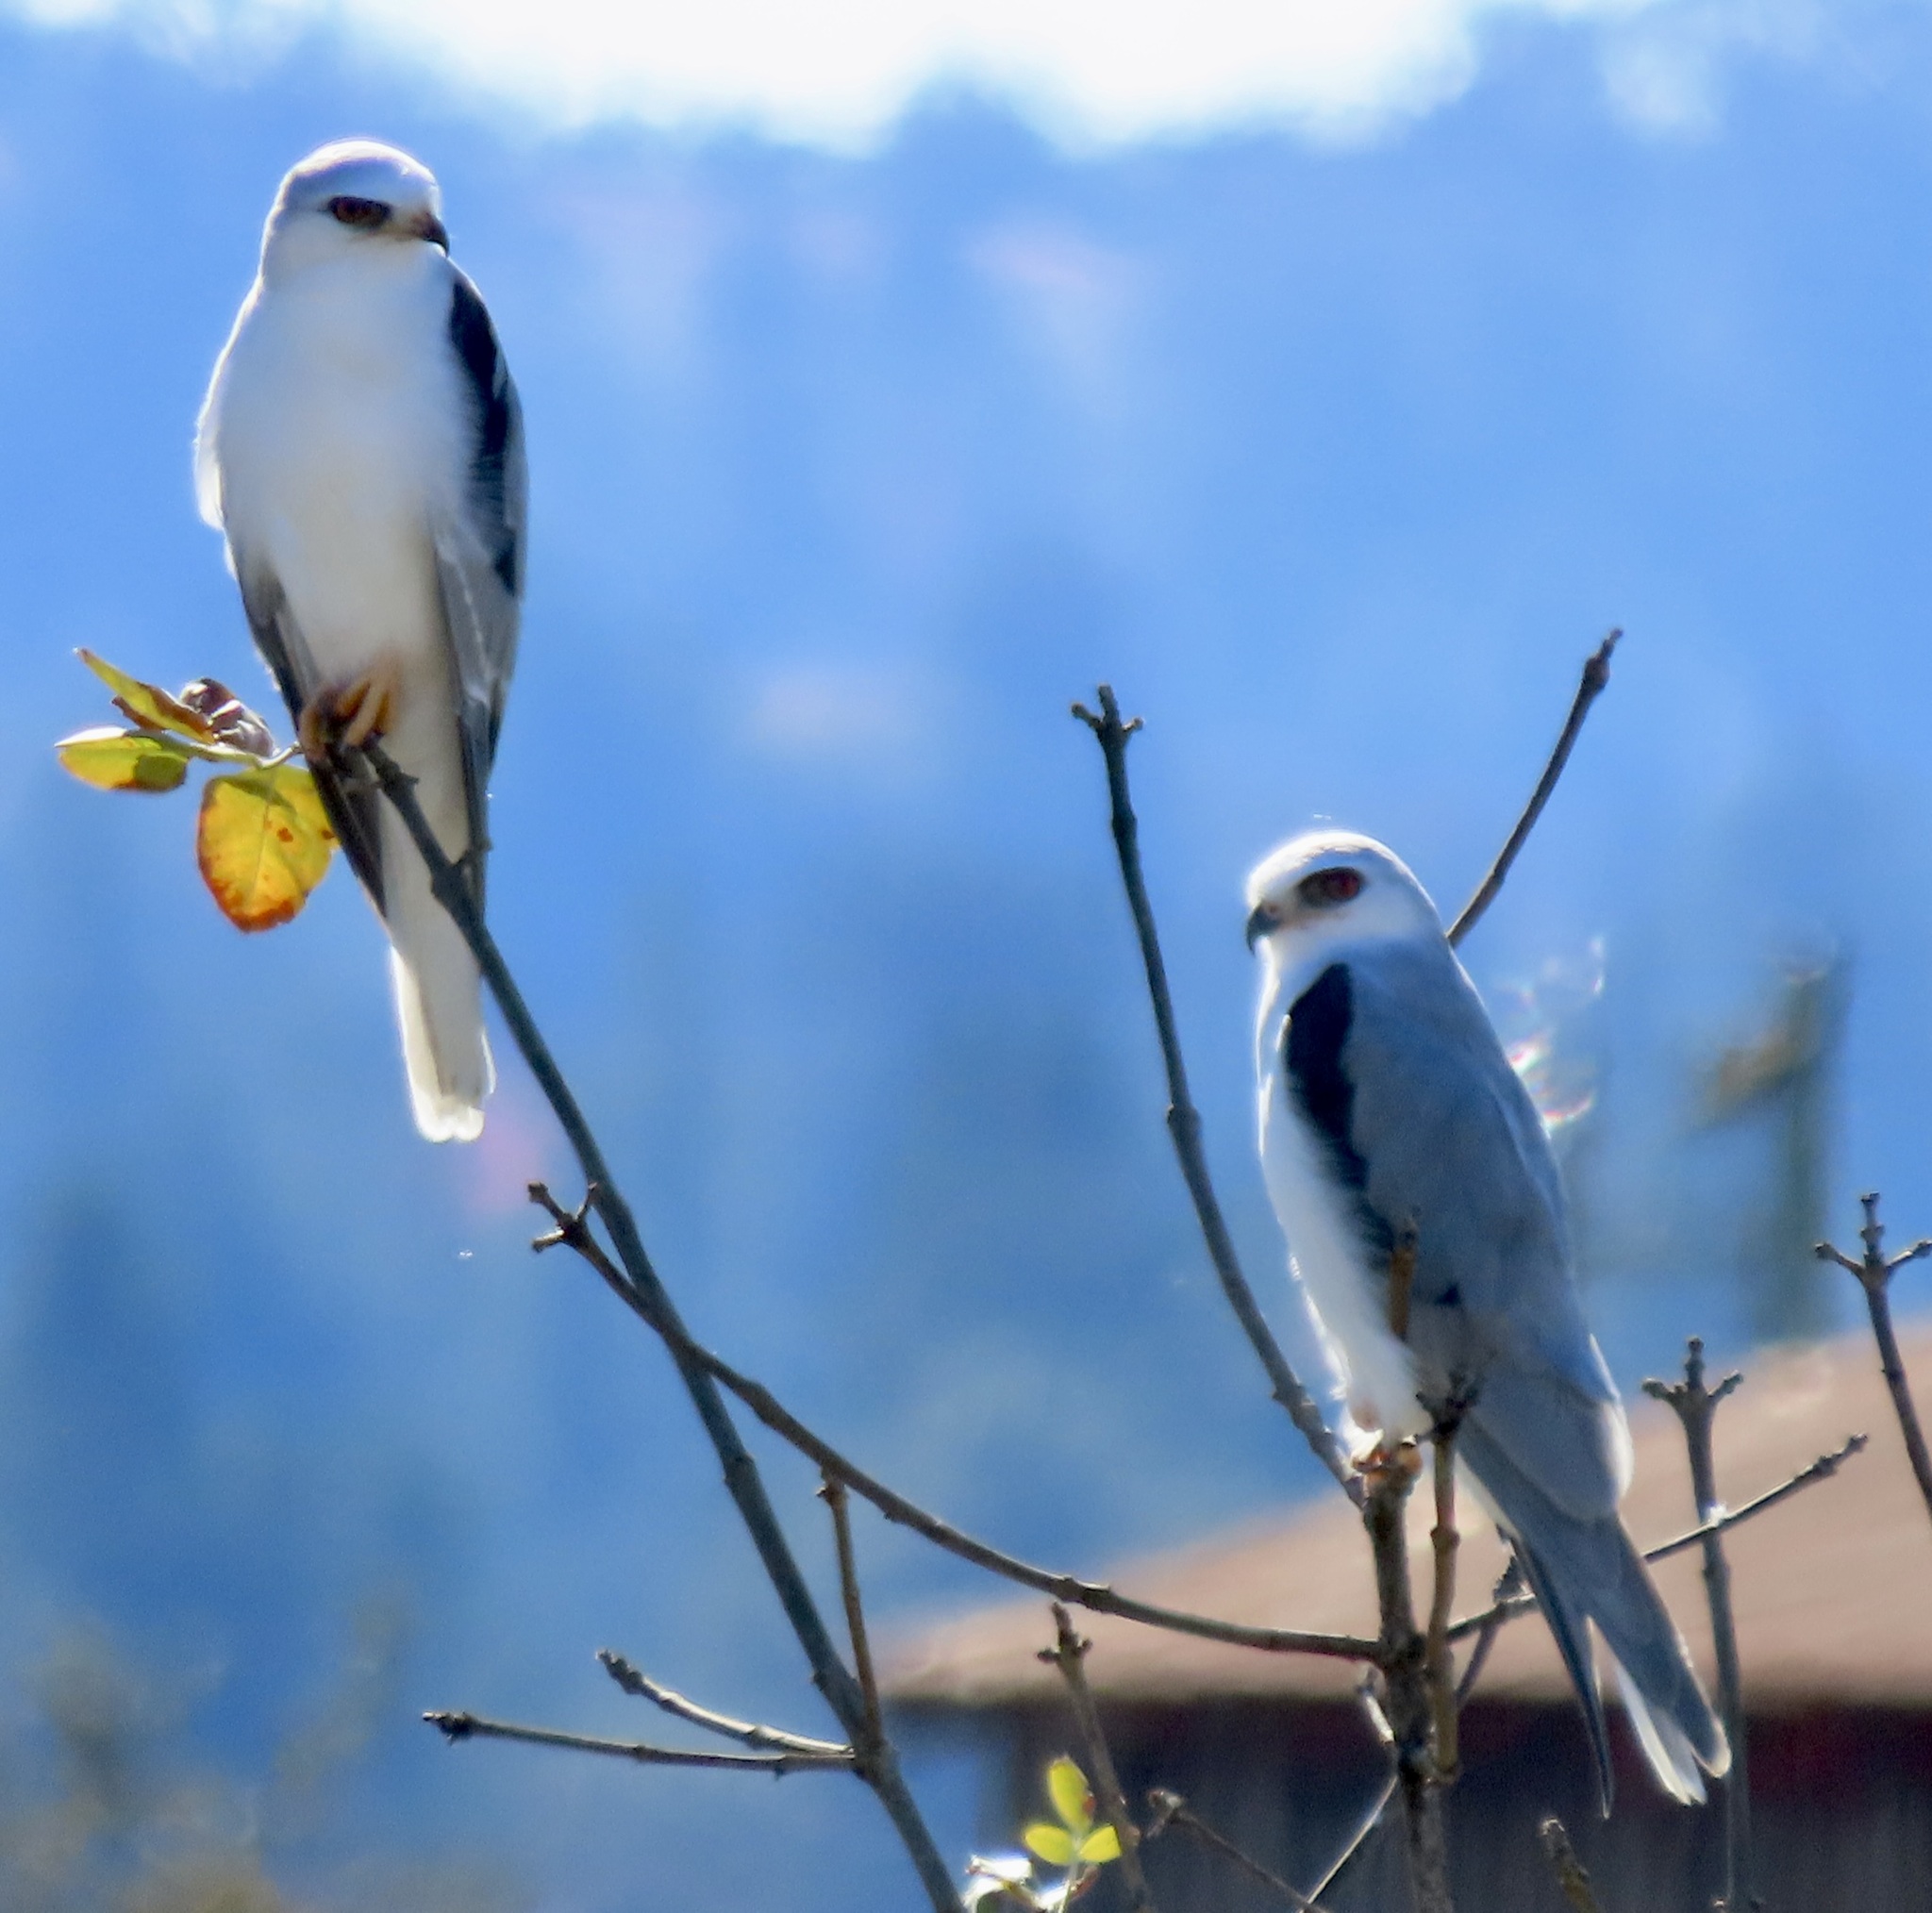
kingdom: Animalia
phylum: Chordata
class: Aves
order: Accipitriformes
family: Accipitridae
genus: Elanus
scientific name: Elanus leucurus
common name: White-tailed kite
